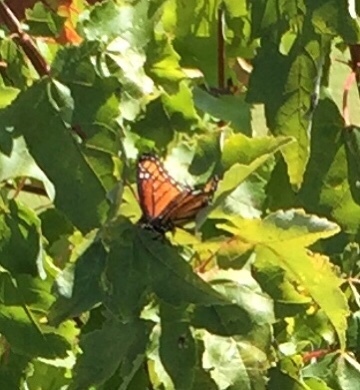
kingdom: Animalia
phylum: Arthropoda
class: Insecta
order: Lepidoptera
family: Nymphalidae
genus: Limenitis
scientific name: Limenitis archippus
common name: Viceroy
